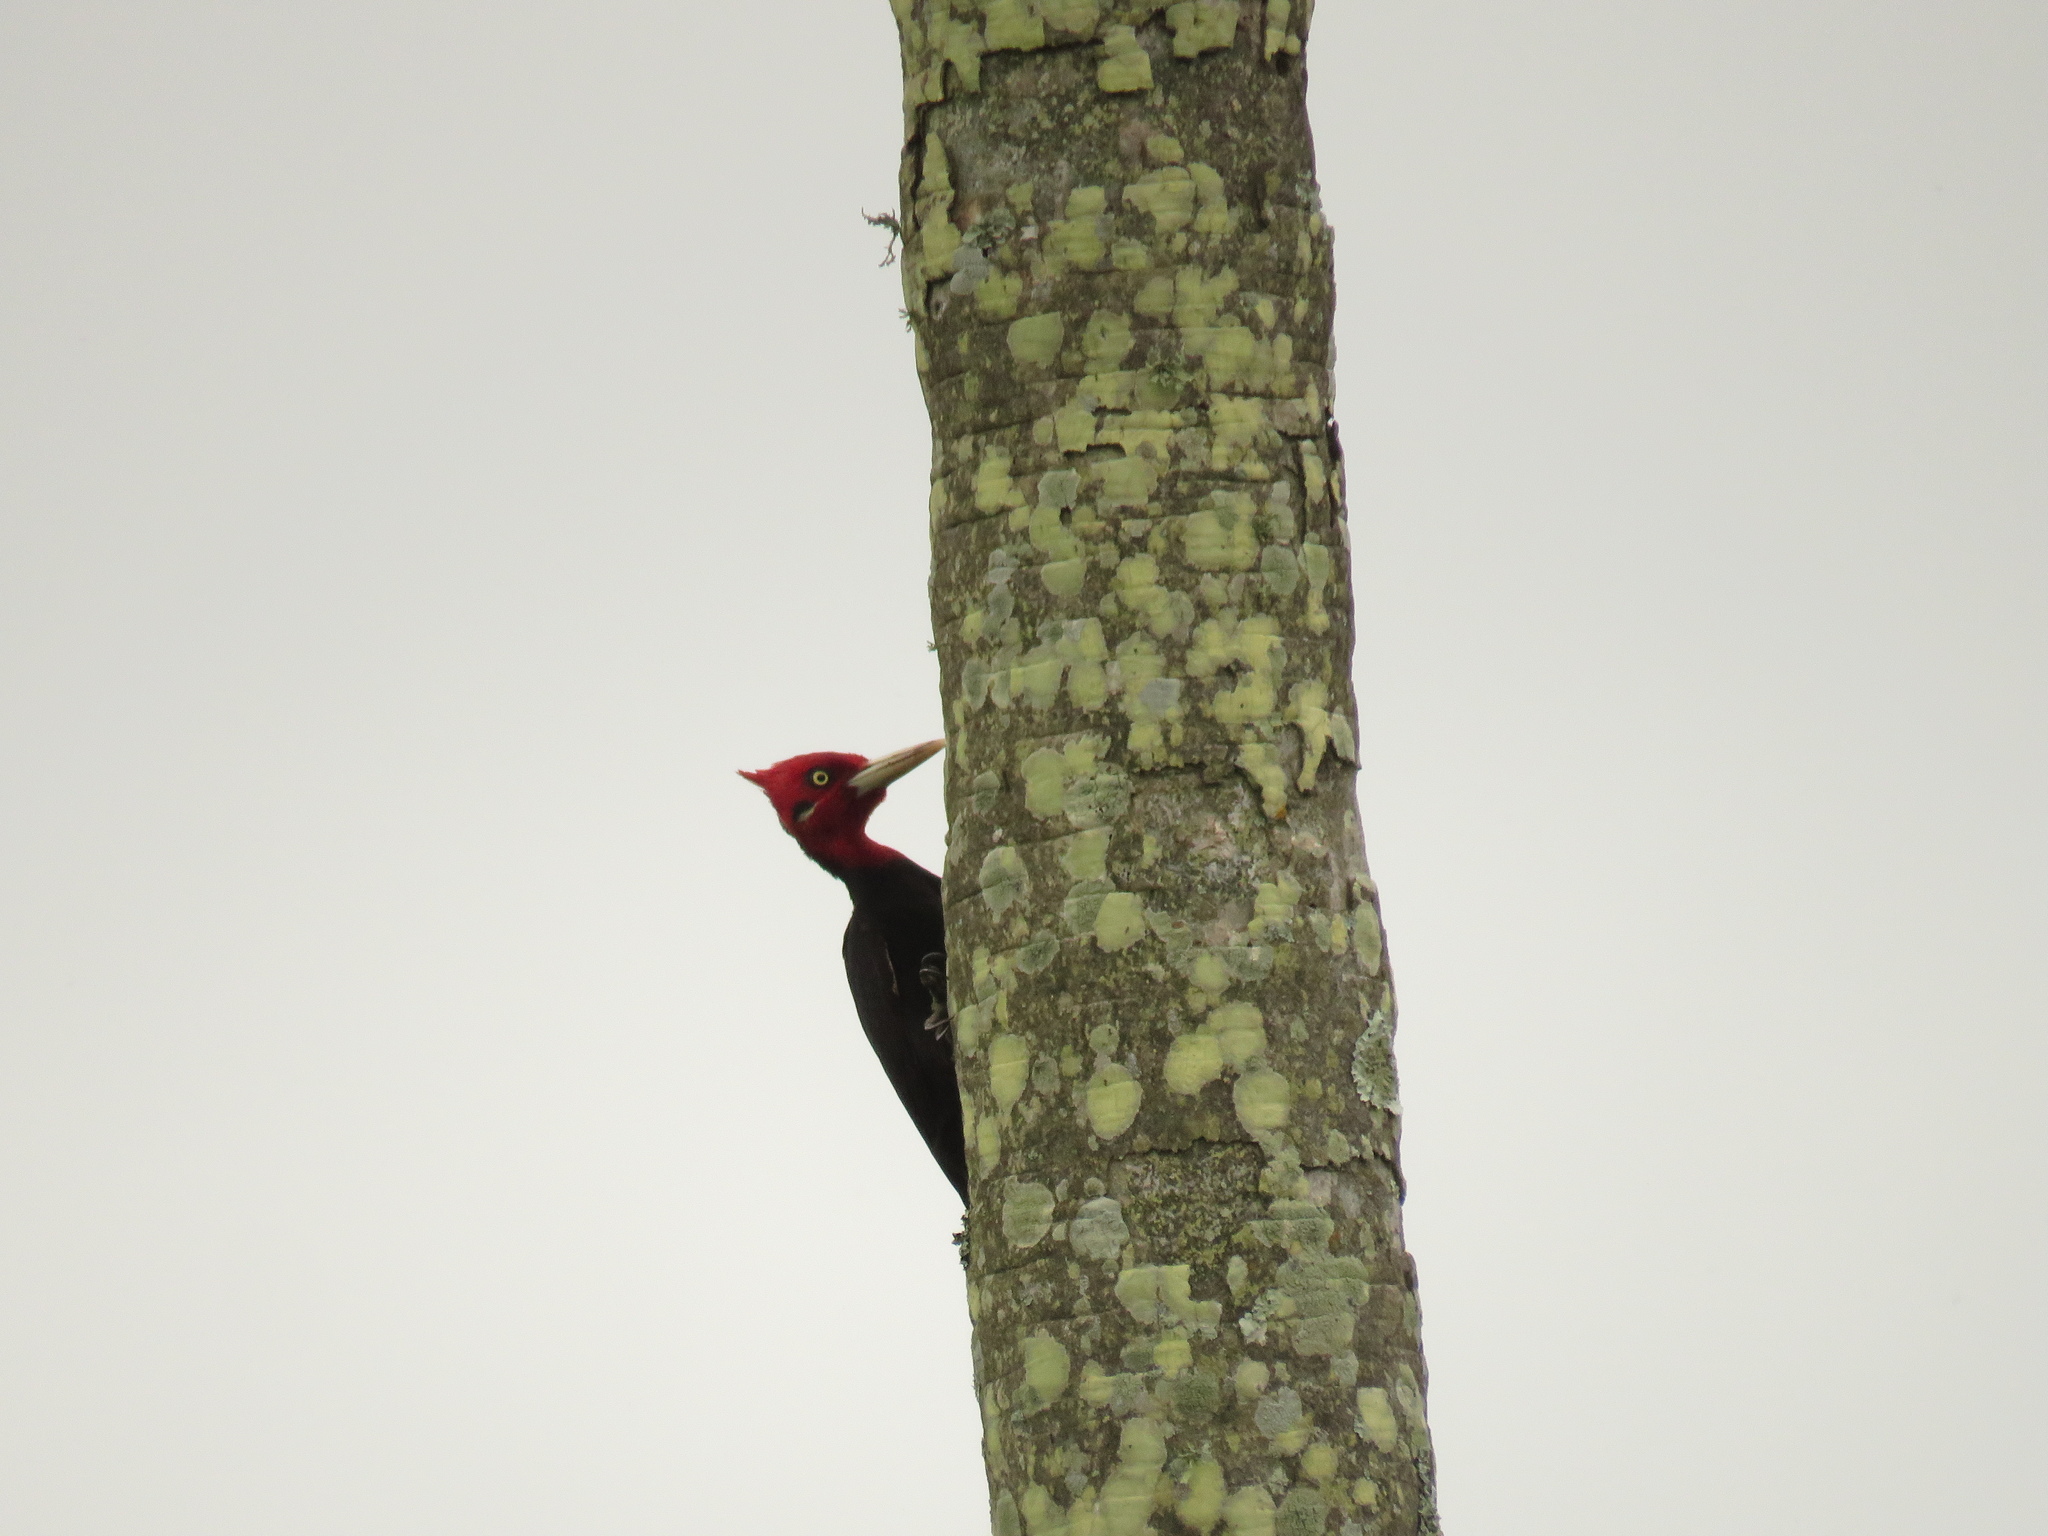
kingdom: Animalia
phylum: Chordata
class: Aves
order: Piciformes
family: Picidae
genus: Campephilus
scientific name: Campephilus leucopogon
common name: Cream-backed woodpecker
